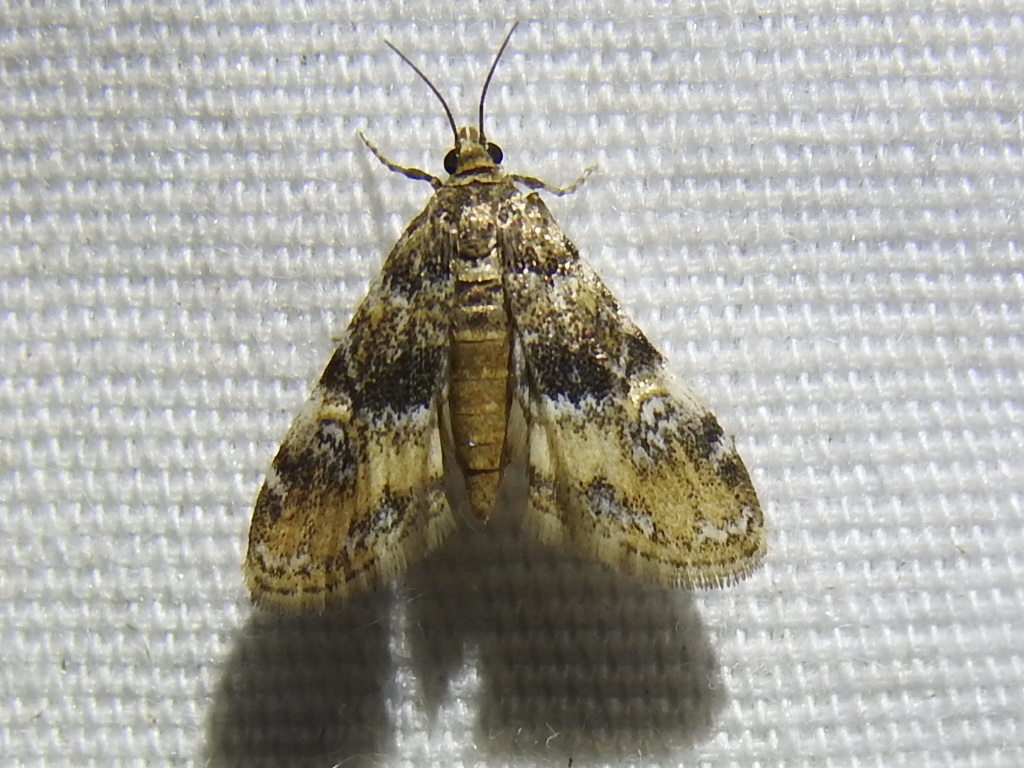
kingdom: Animalia
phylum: Arthropoda
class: Insecta
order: Lepidoptera
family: Crambidae
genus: Elophila
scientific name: Elophila obliteralis
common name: Waterlily leafcutter moth
